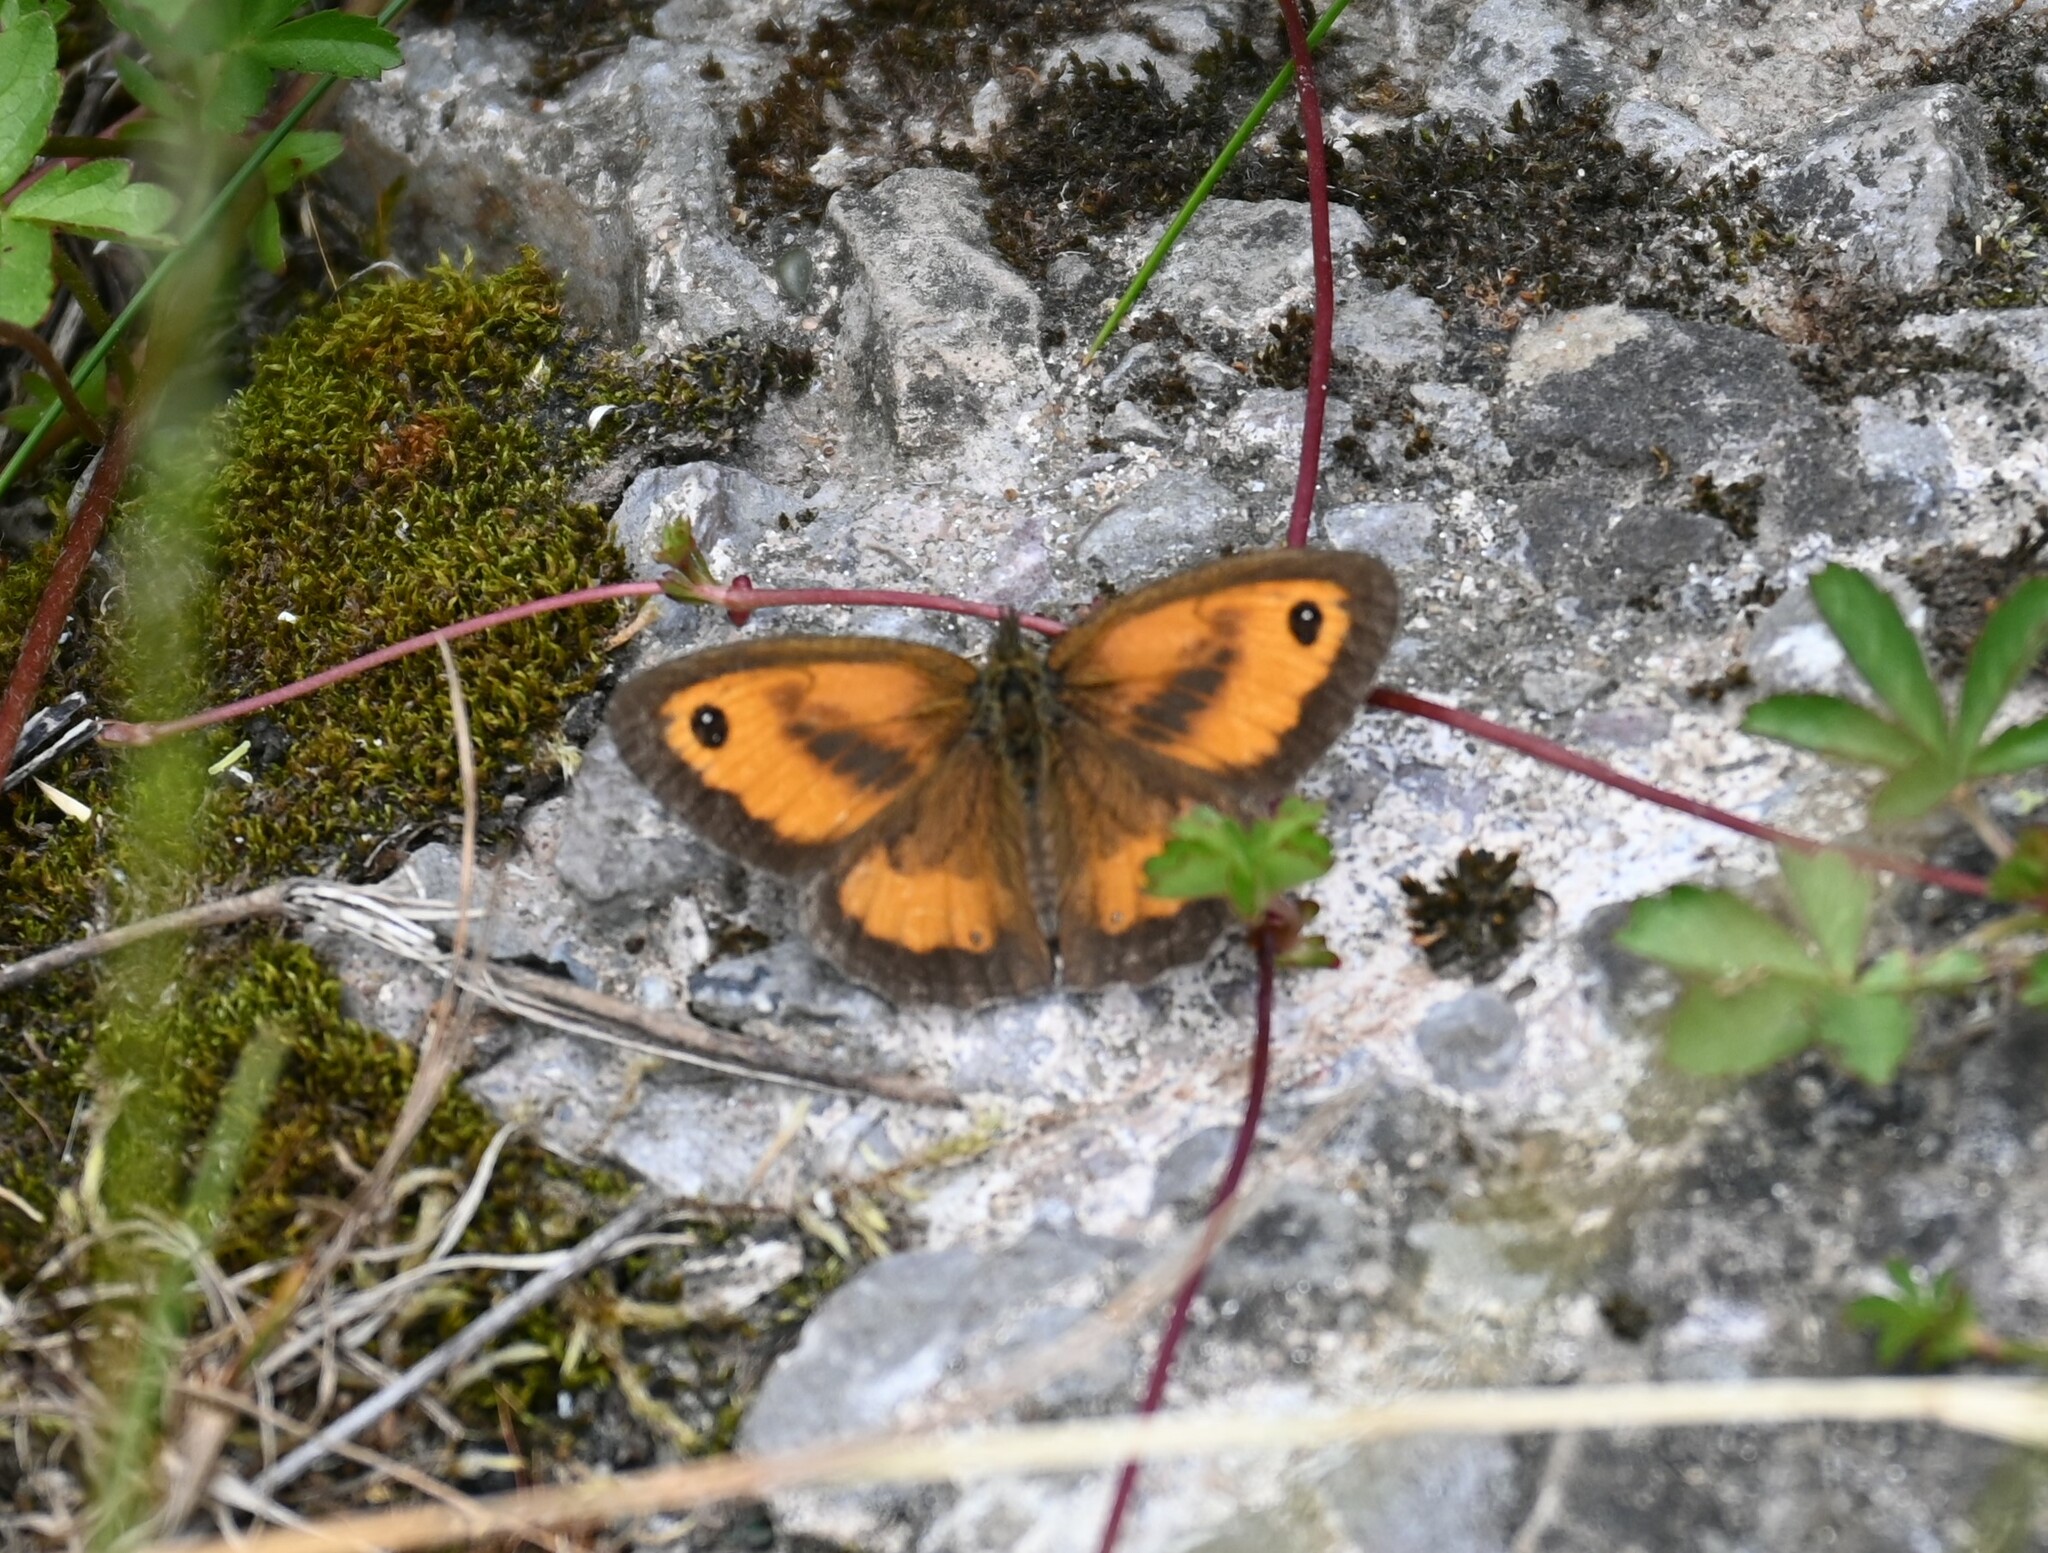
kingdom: Animalia
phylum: Arthropoda
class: Insecta
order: Lepidoptera
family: Nymphalidae
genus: Pyronia
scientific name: Pyronia tithonus
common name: Gatekeeper
